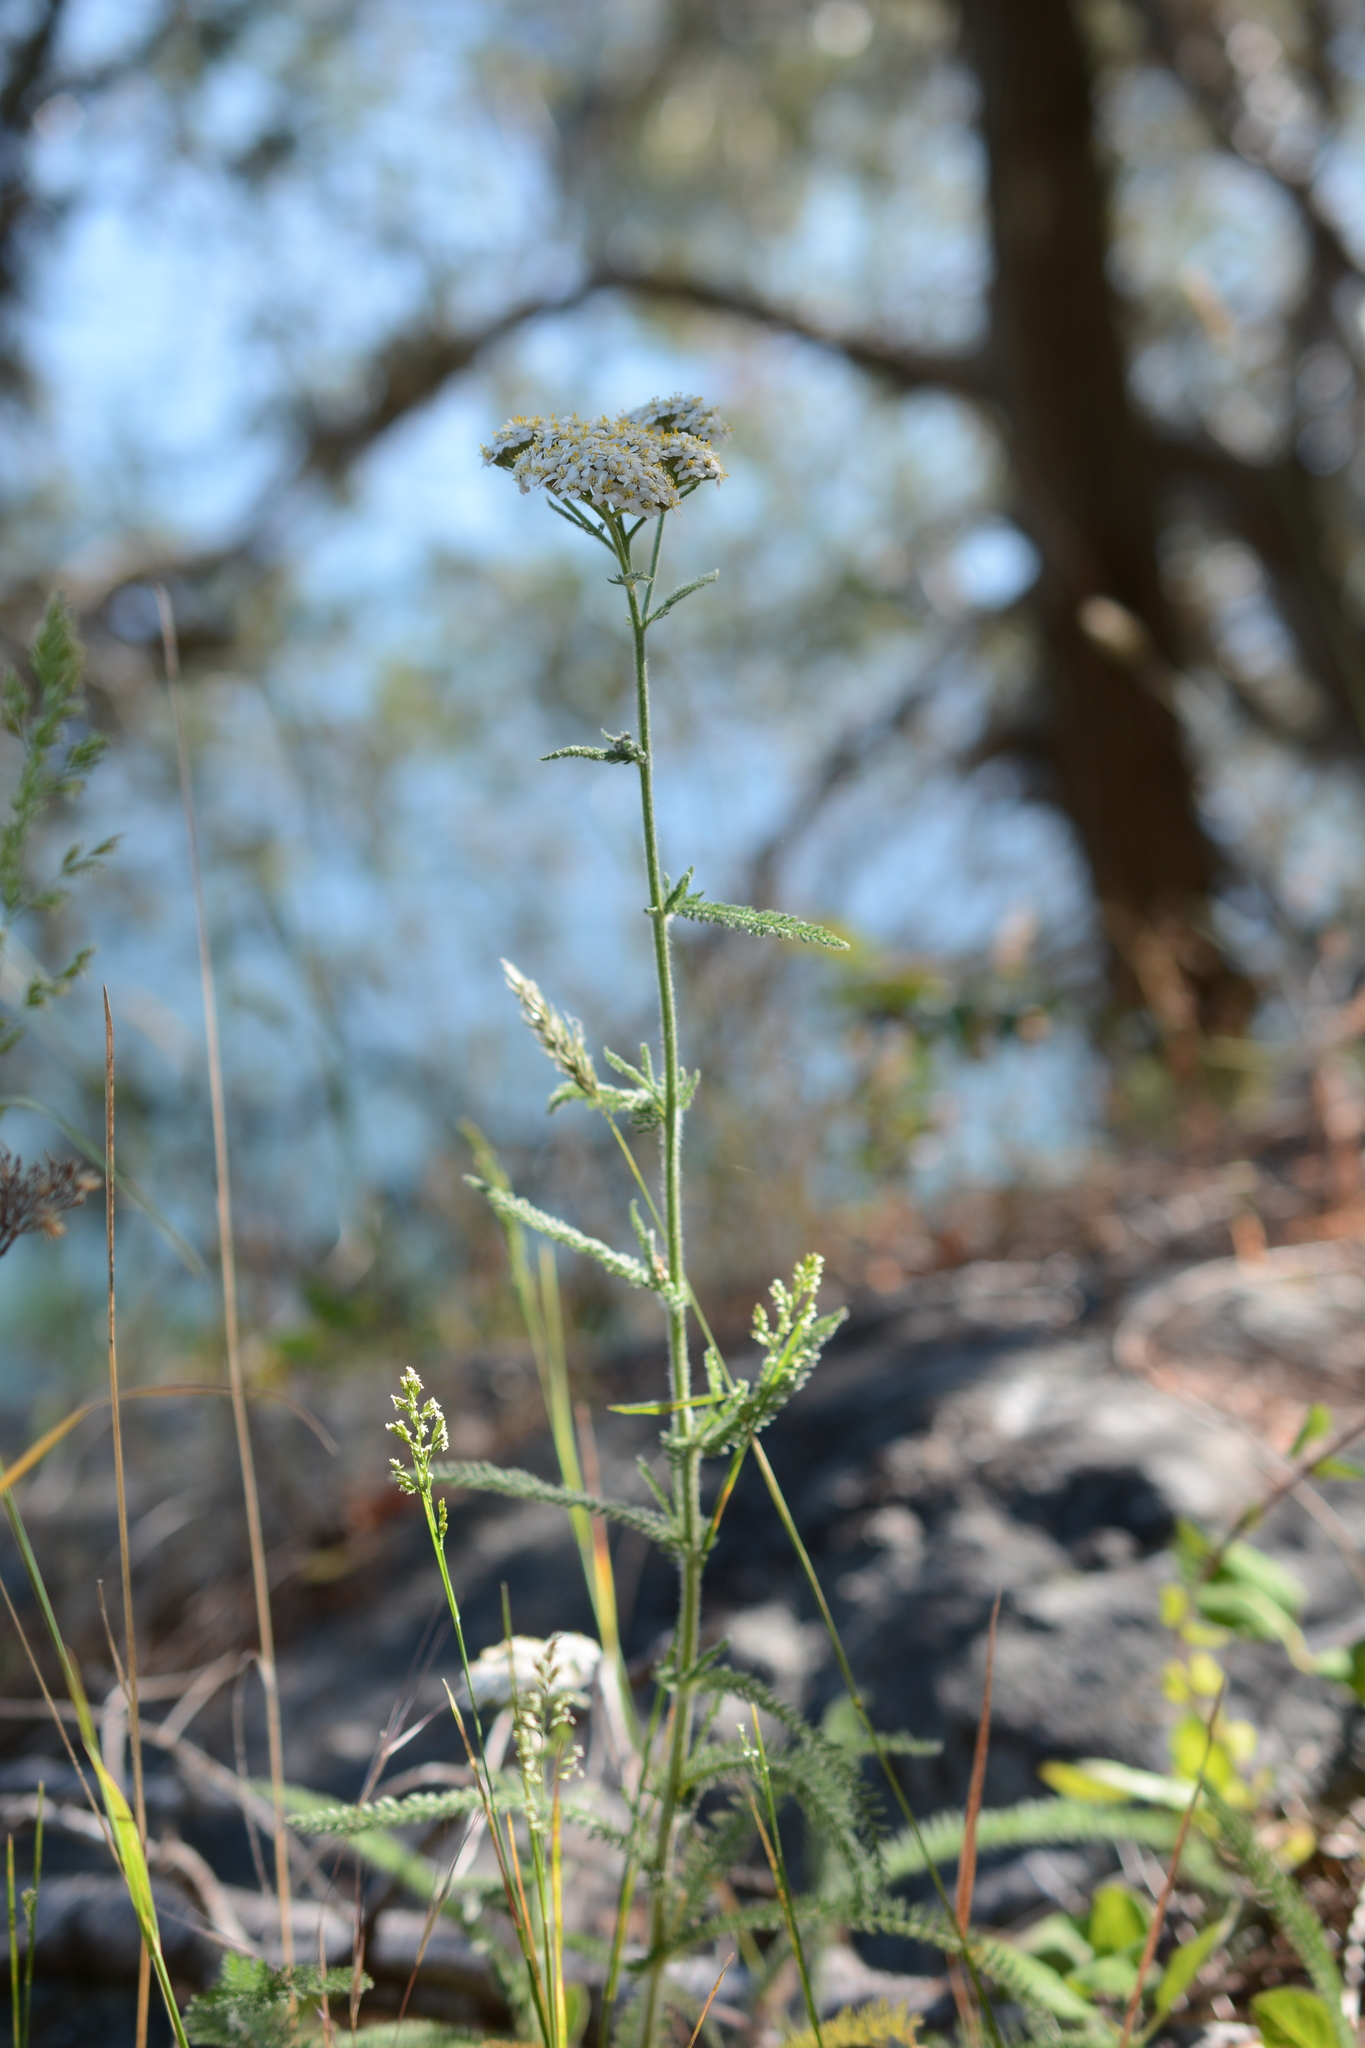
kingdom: Plantae
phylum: Tracheophyta
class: Magnoliopsida
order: Asterales
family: Asteraceae
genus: Achillea
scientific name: Achillea millefolium
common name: Yarrow
